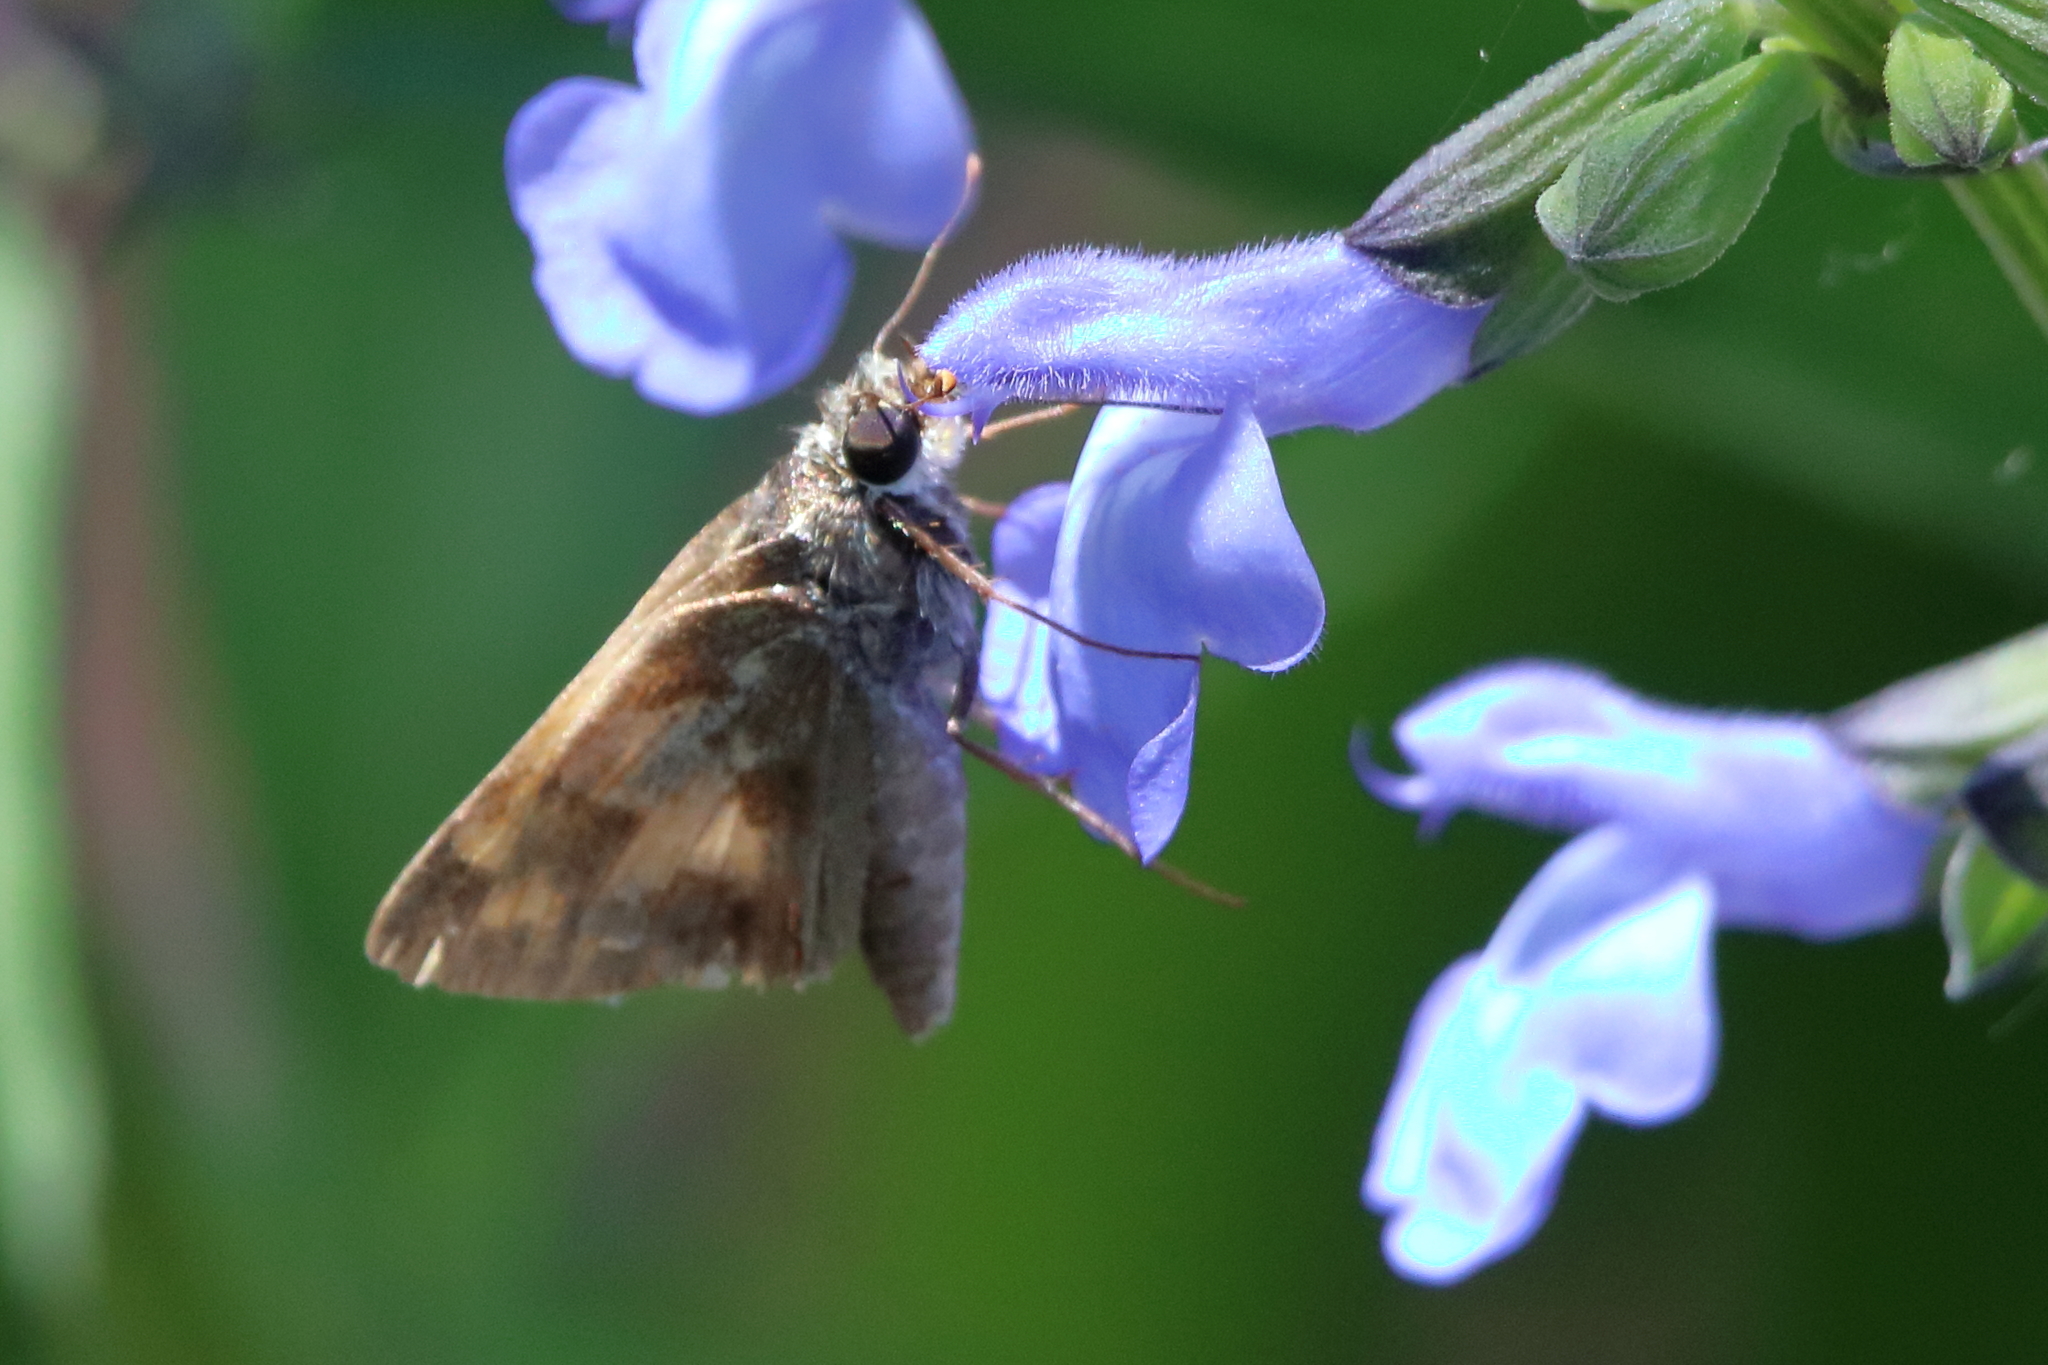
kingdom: Animalia
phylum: Arthropoda
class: Insecta
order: Lepidoptera
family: Hesperiidae
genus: Polites
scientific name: Polites vibex
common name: Whirlabout
